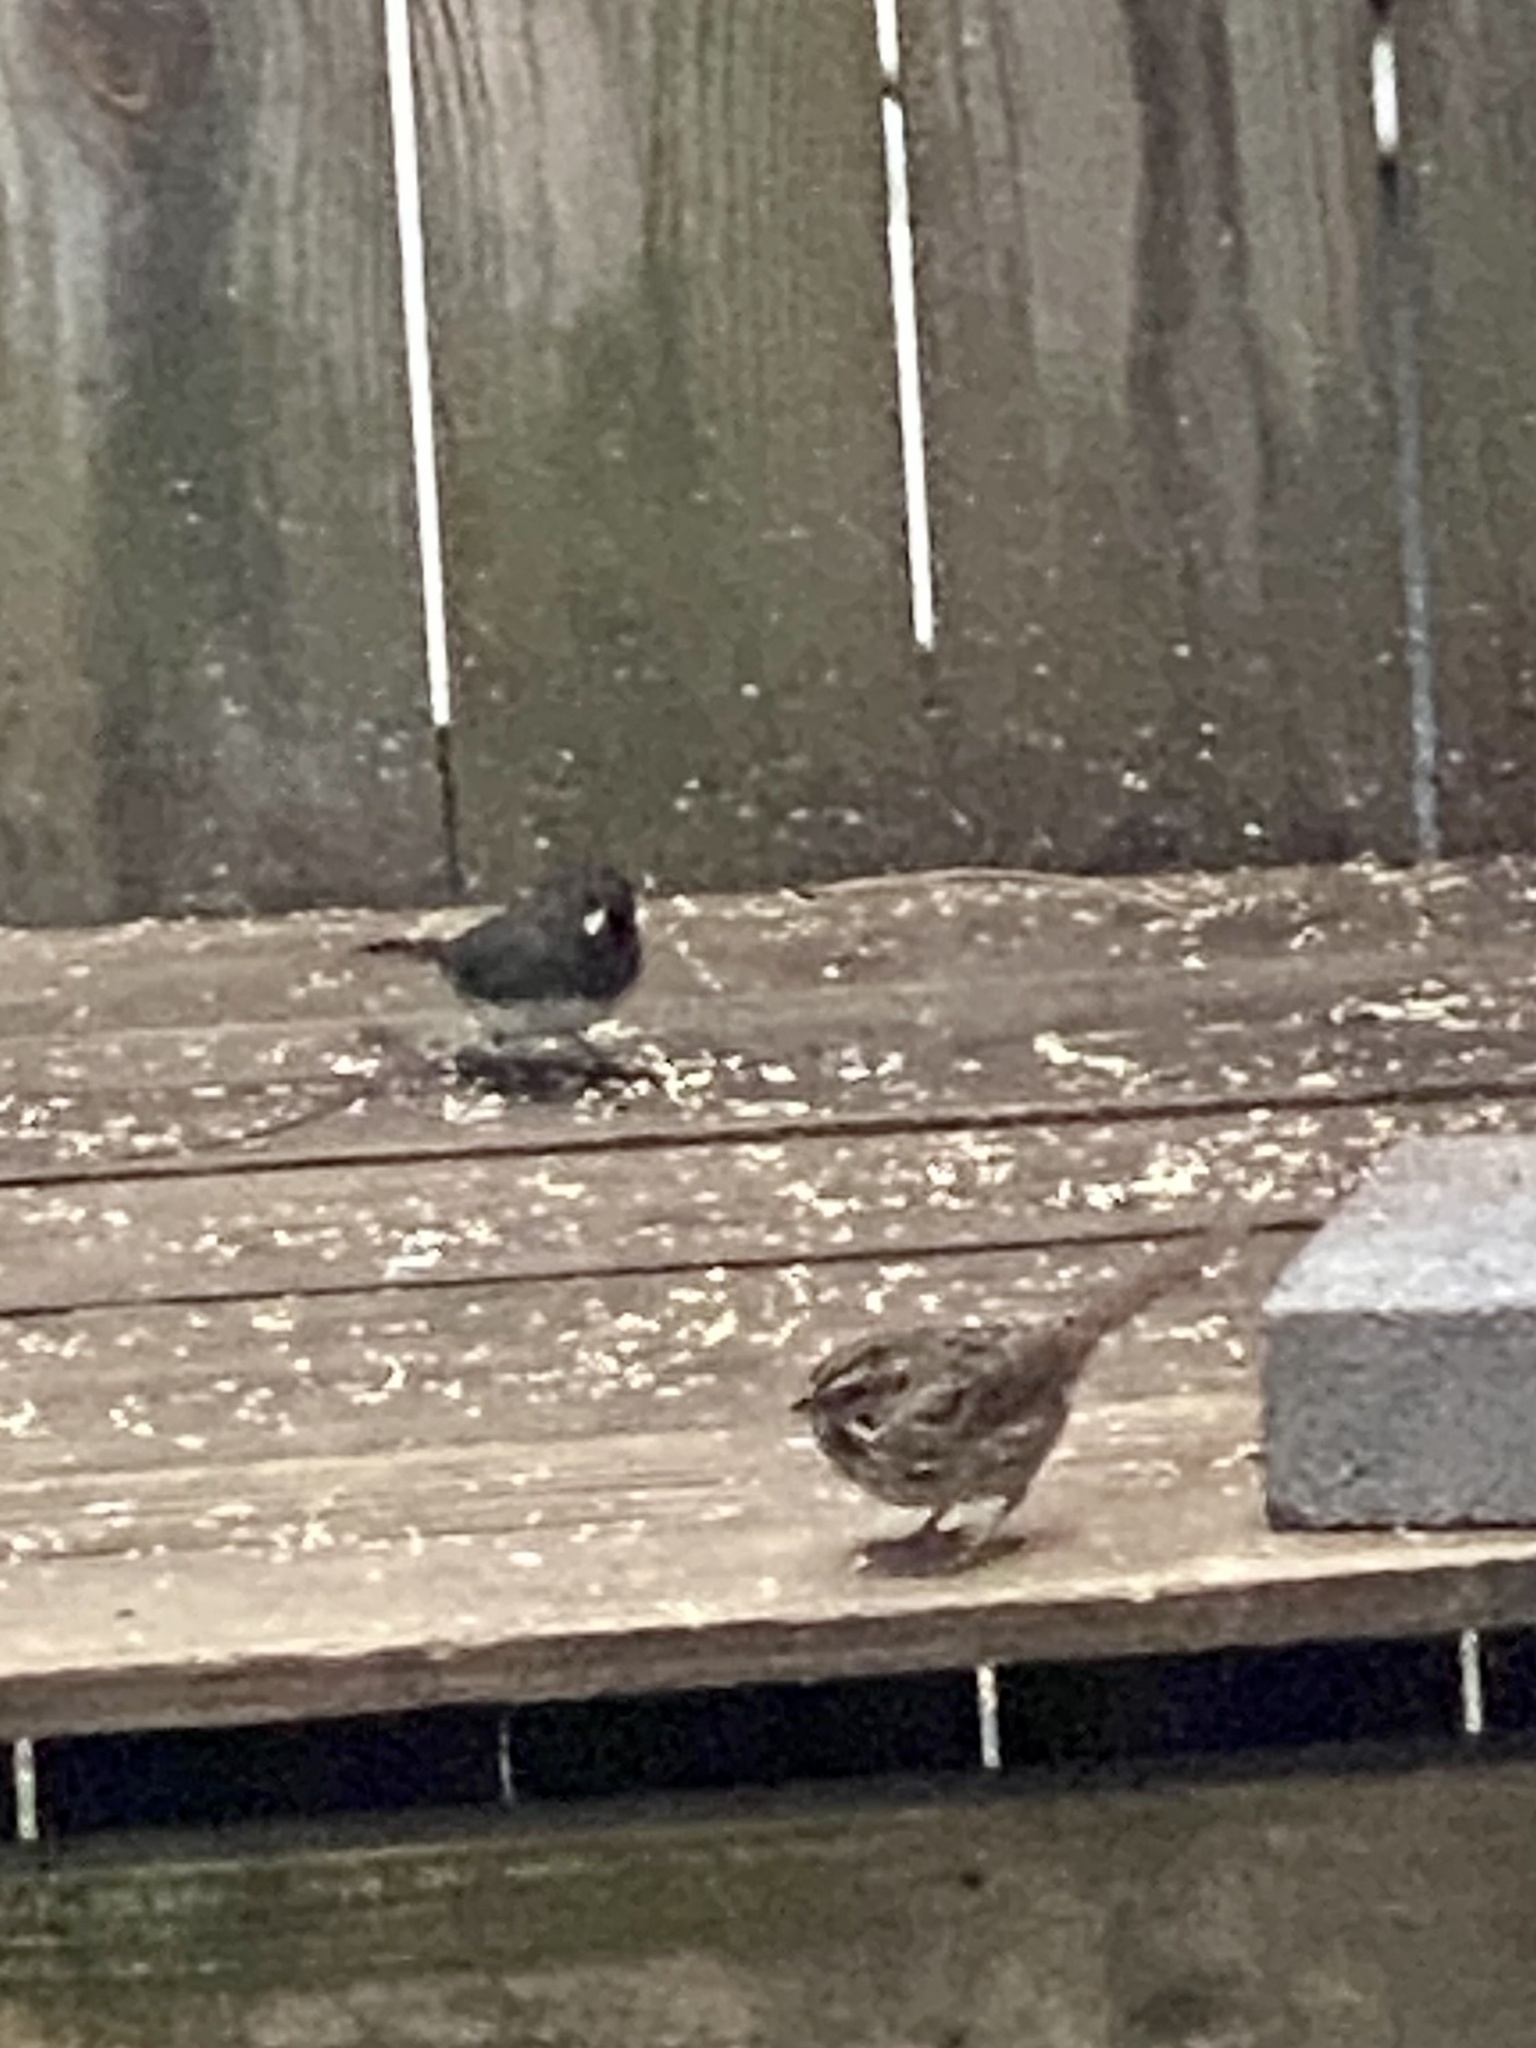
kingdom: Animalia
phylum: Chordata
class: Aves
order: Passeriformes
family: Passerellidae
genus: Melospiza
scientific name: Melospiza melodia
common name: Song sparrow
